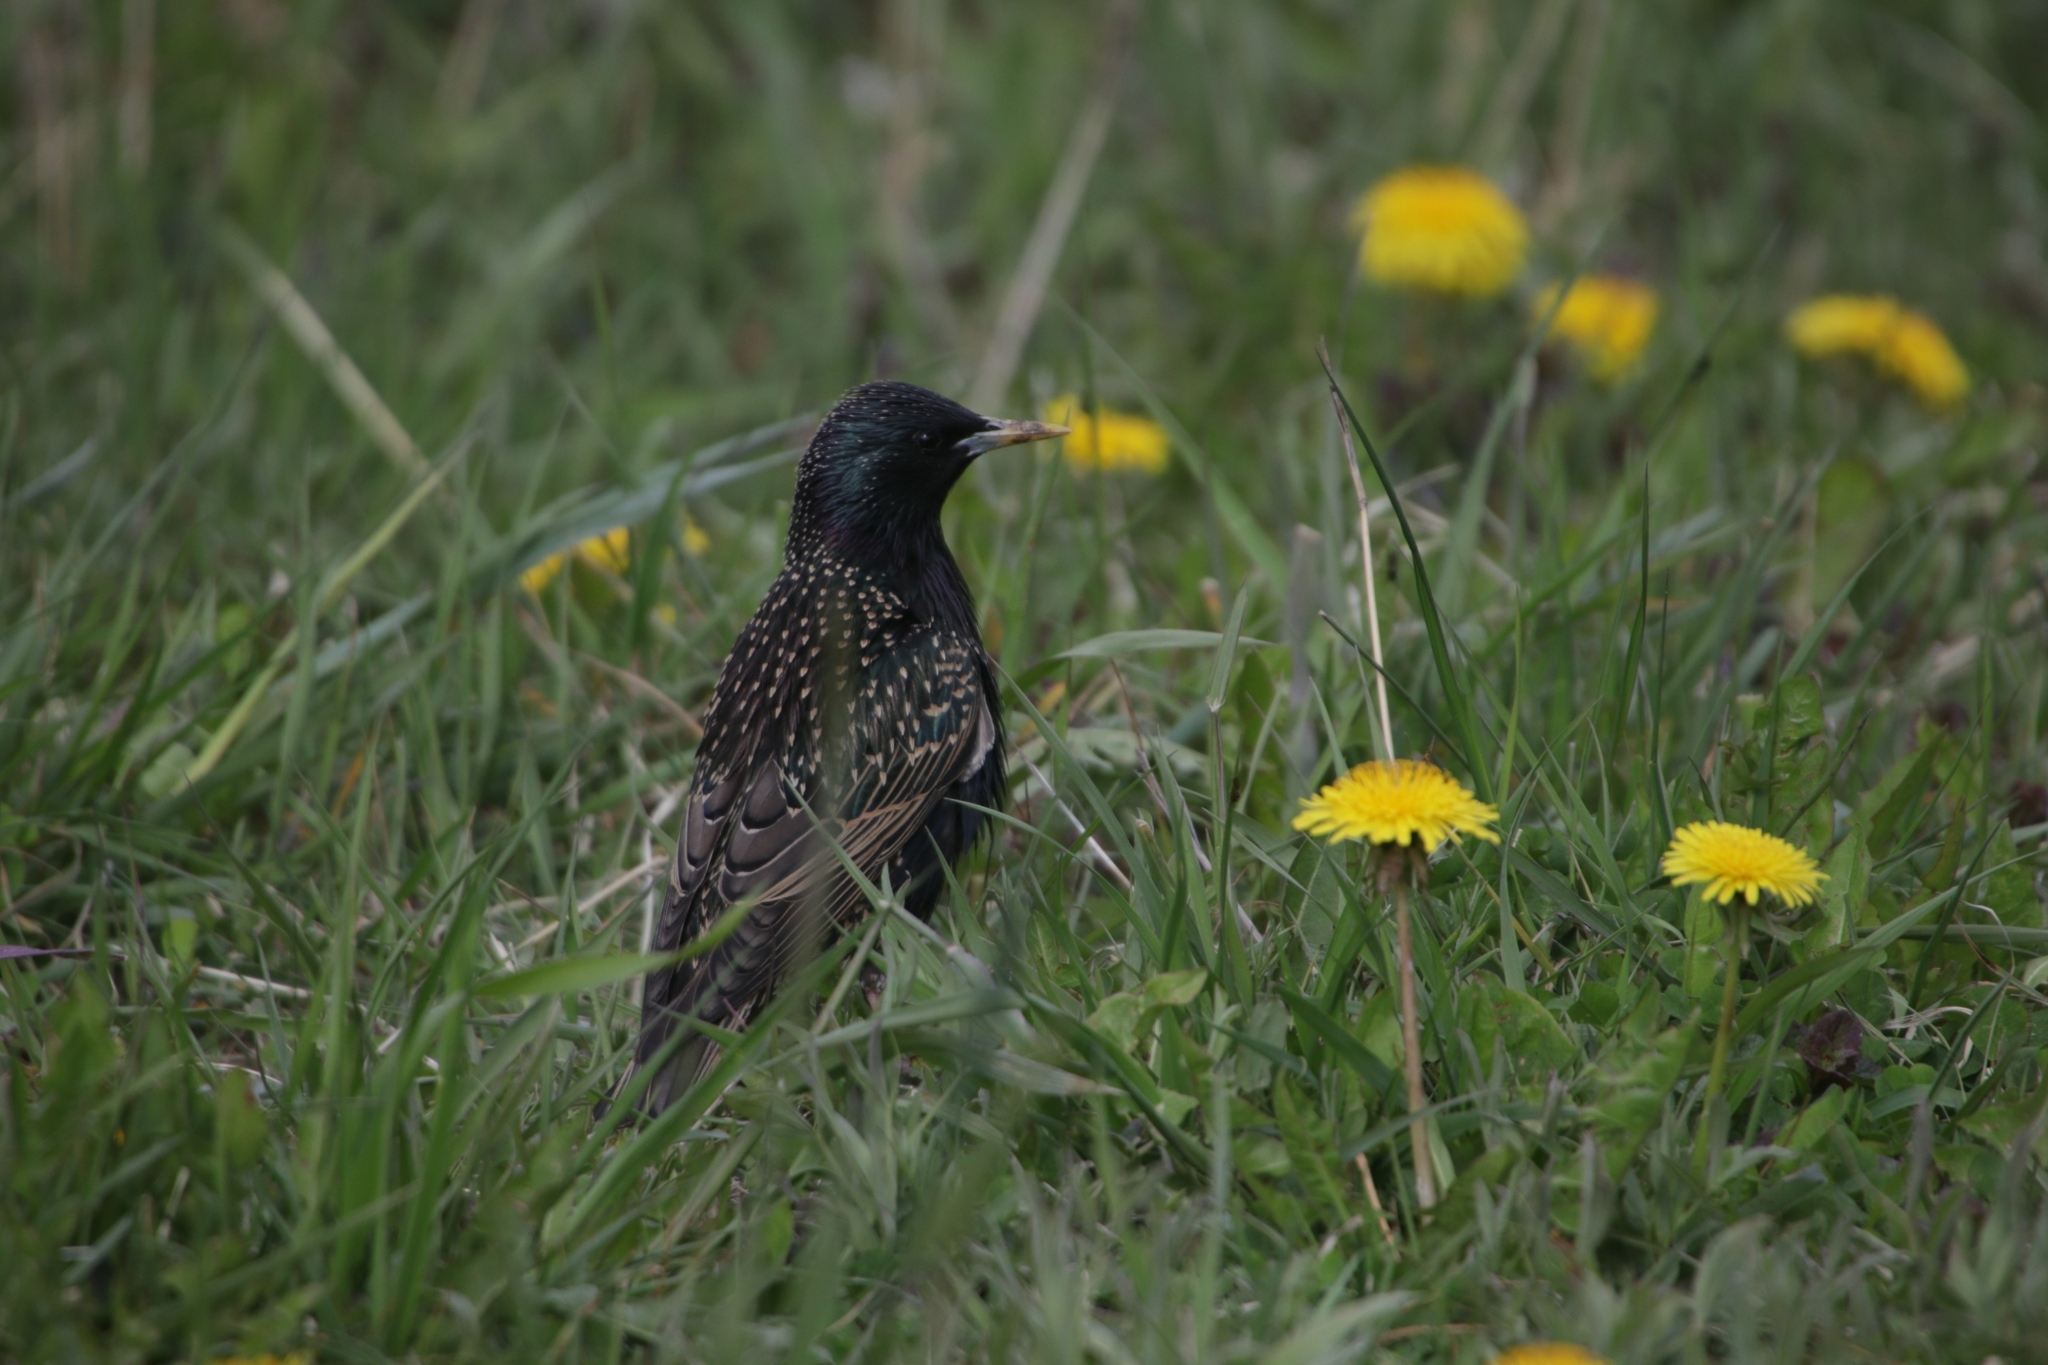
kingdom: Animalia
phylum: Chordata
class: Aves
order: Passeriformes
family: Sturnidae
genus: Sturnus
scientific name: Sturnus vulgaris
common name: Common starling
